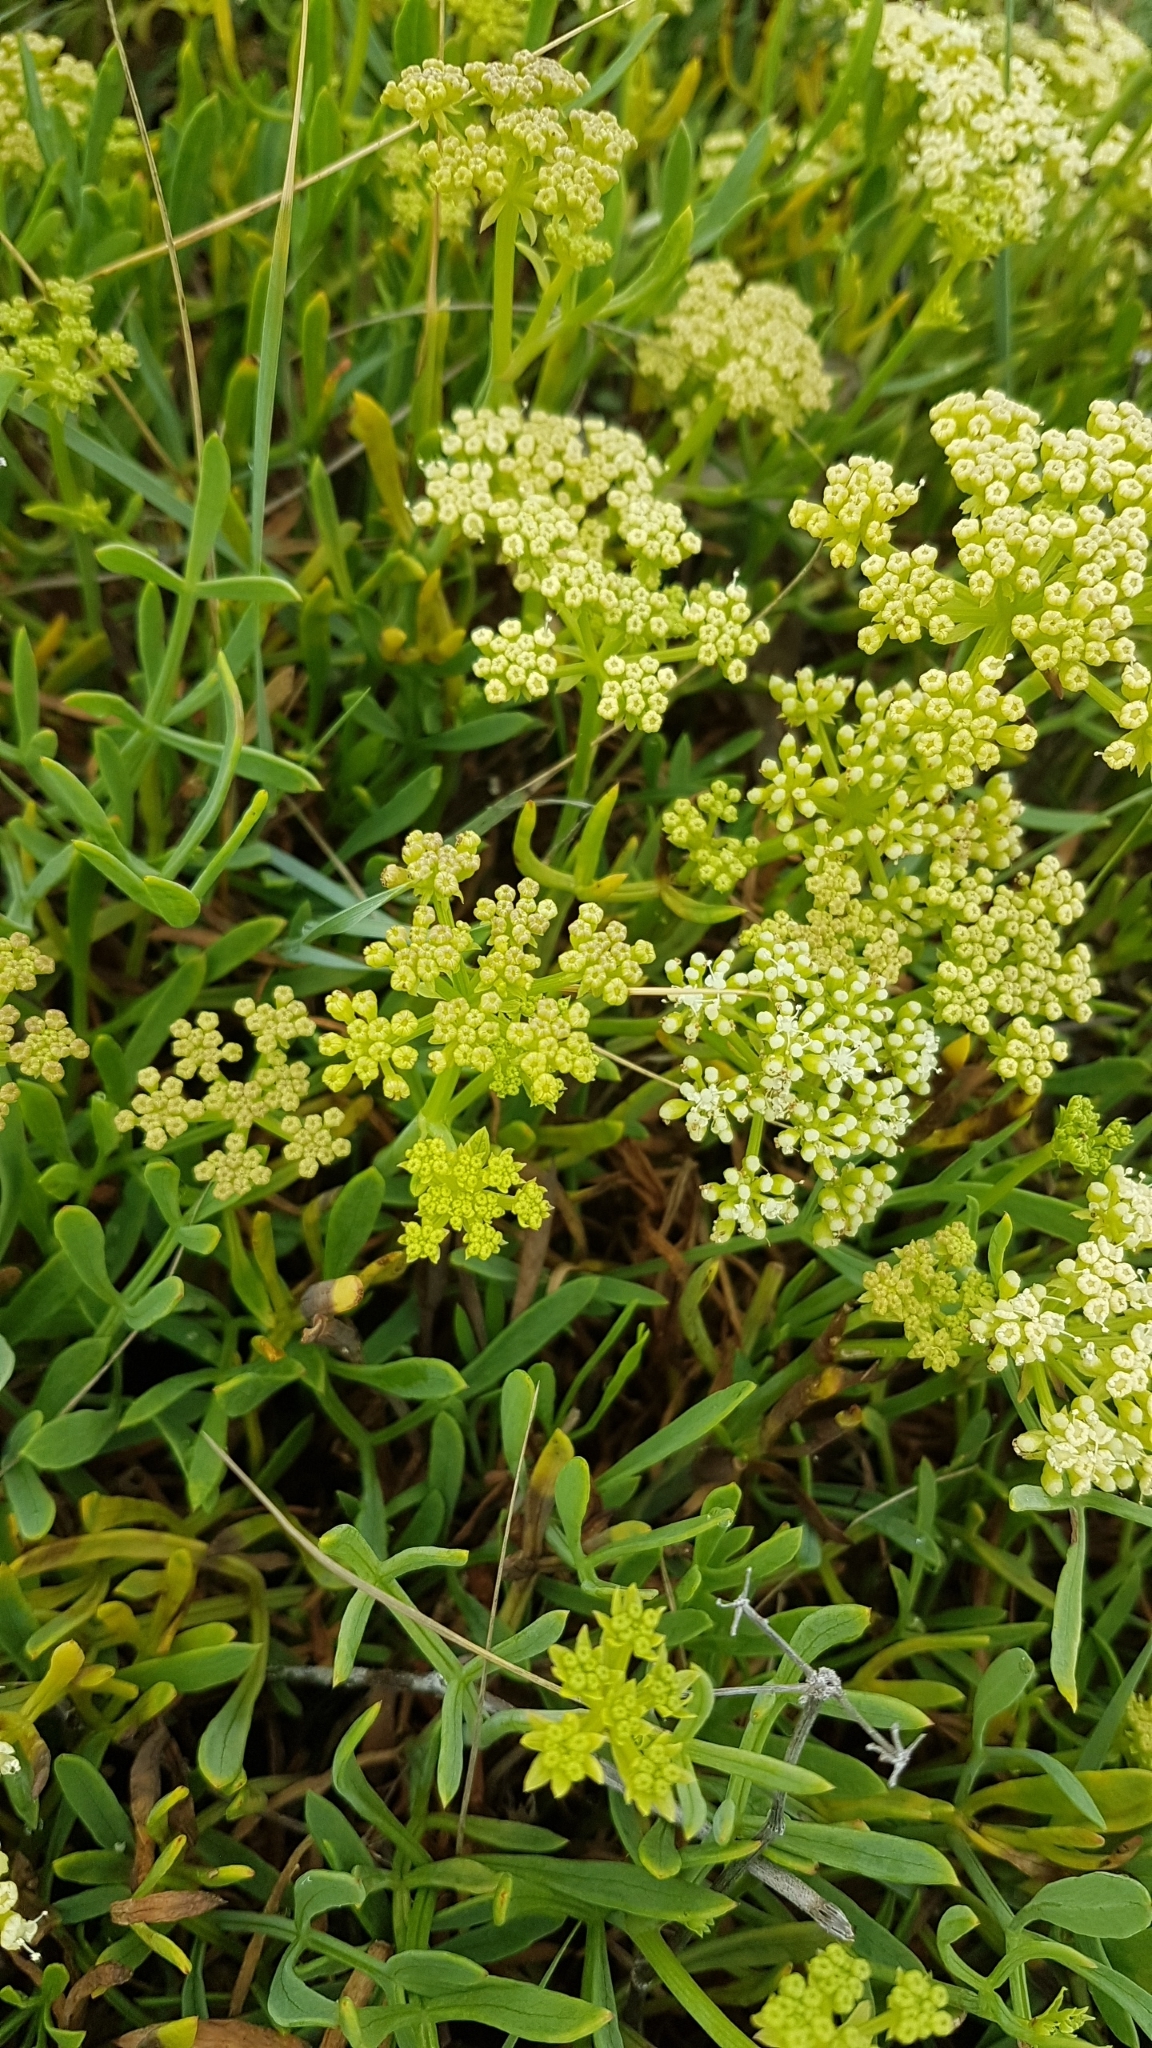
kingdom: Plantae
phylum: Tracheophyta
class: Magnoliopsida
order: Apiales
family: Apiaceae
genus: Crithmum
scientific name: Crithmum maritimum
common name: Rock samphire
